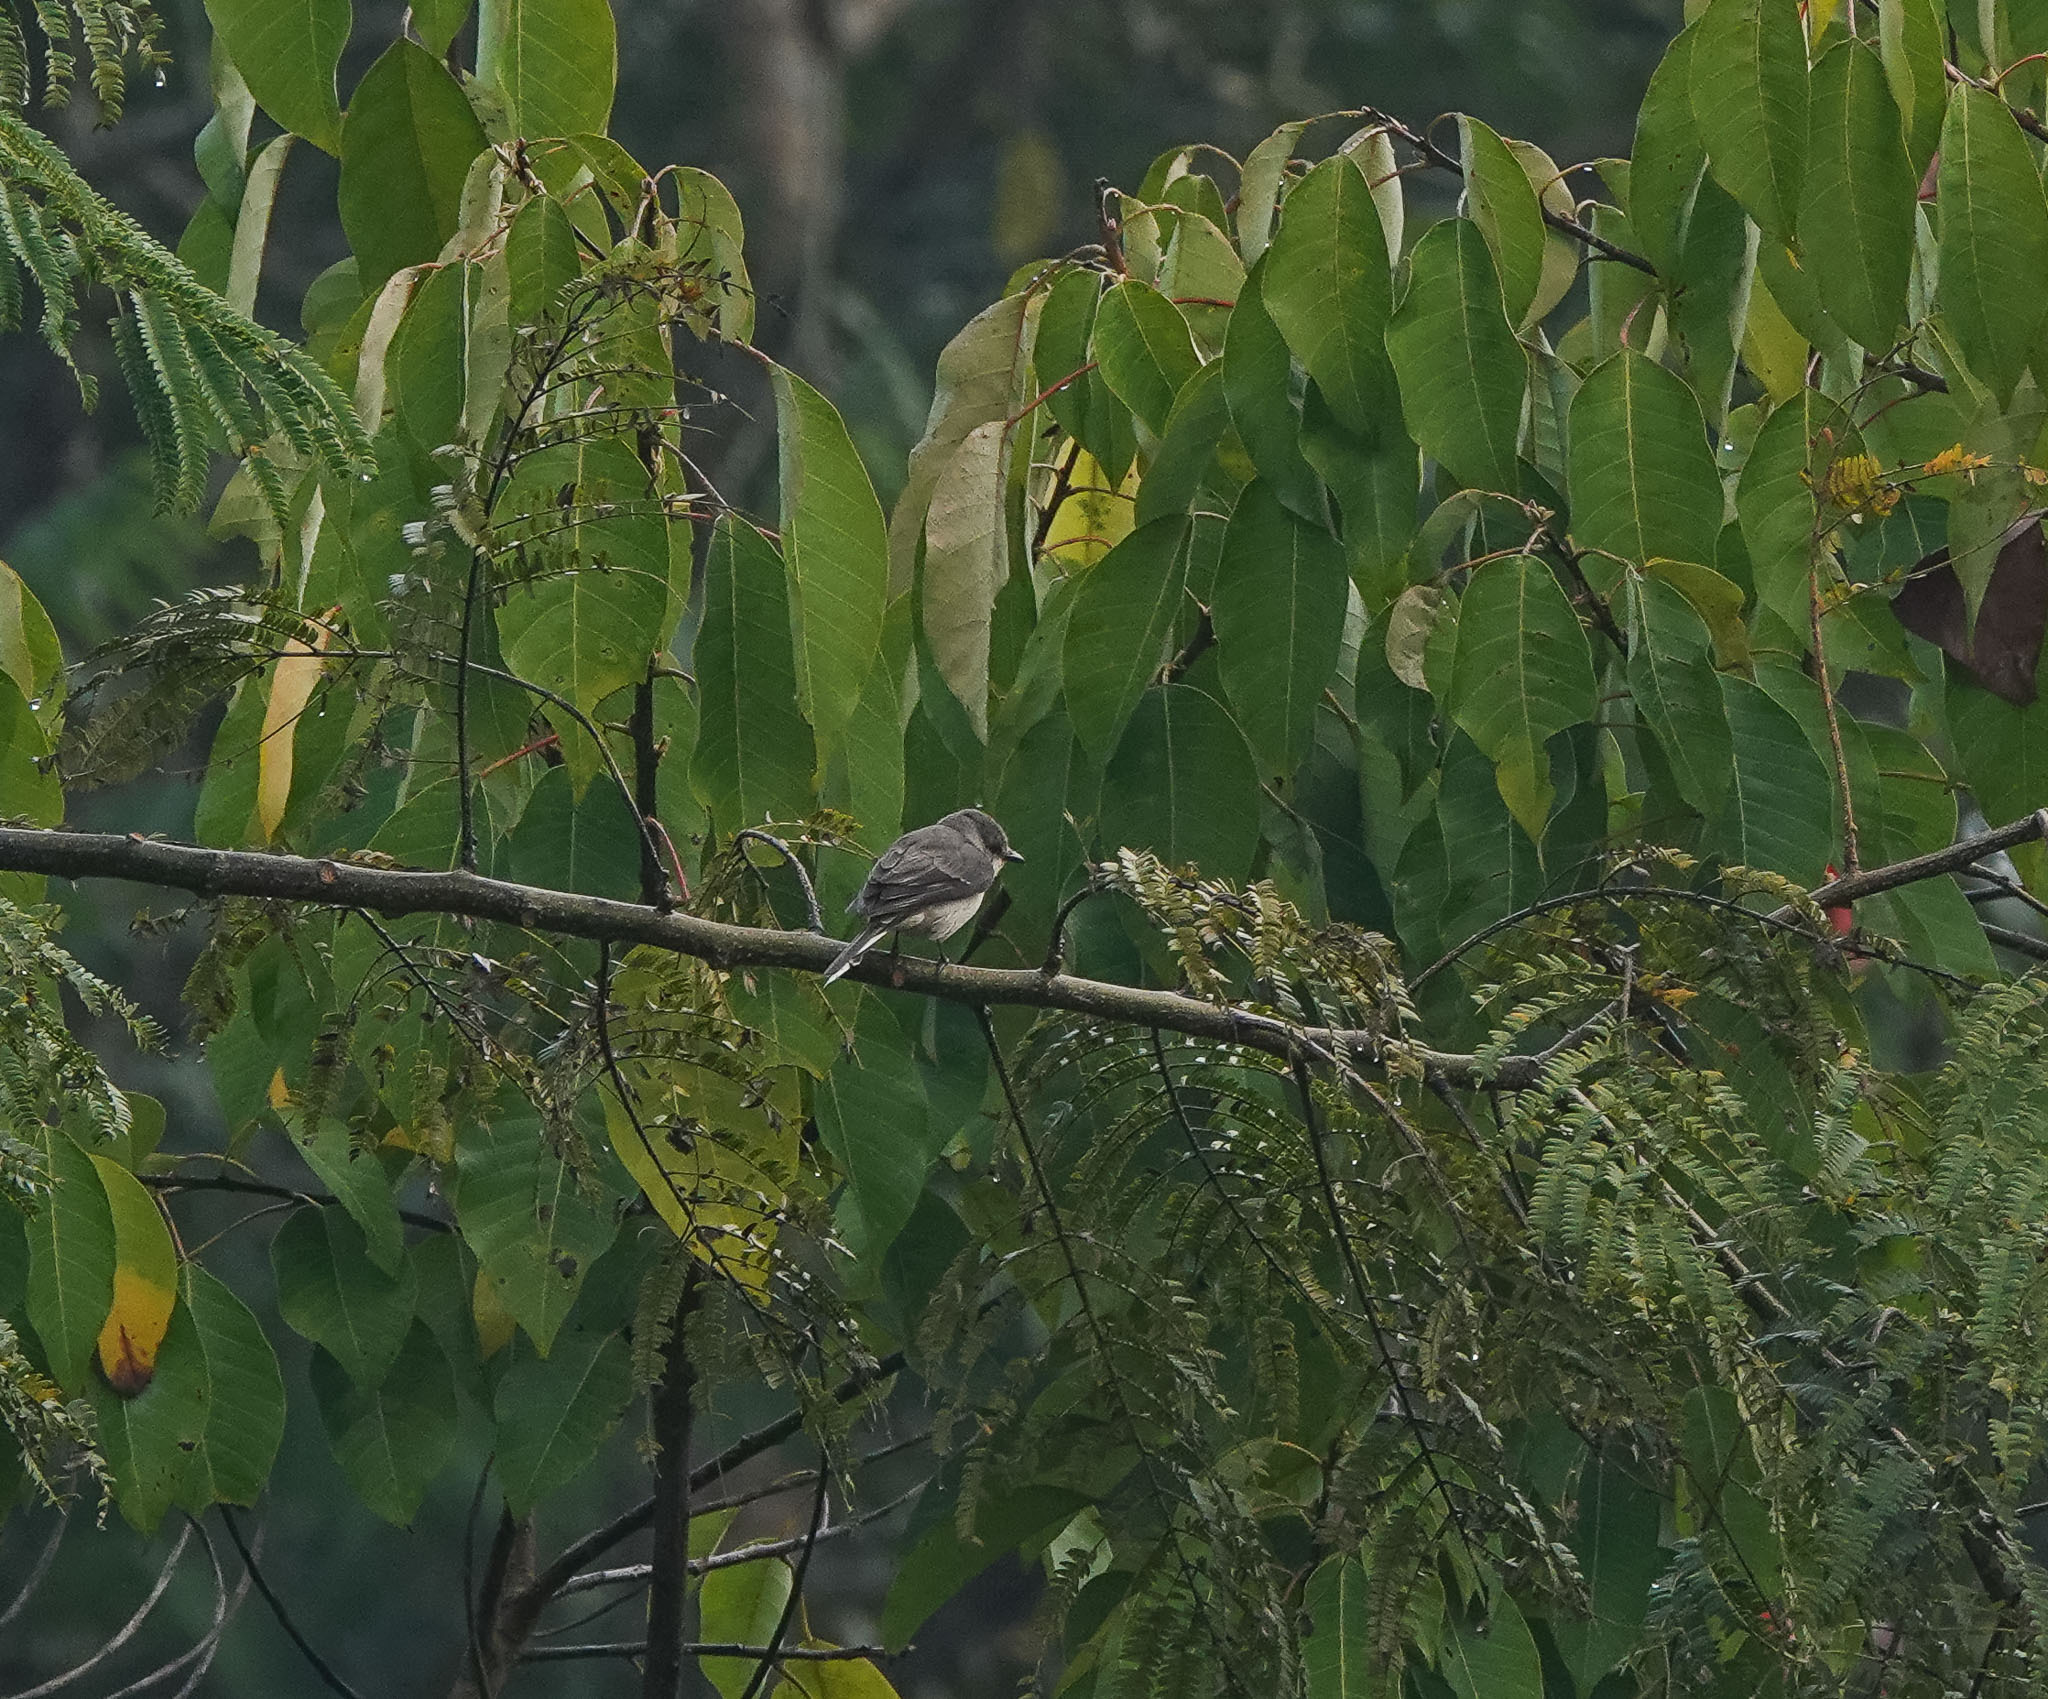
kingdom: Animalia
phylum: Chordata
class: Aves
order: Passeriformes
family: Campephagidae
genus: Pericrocotus
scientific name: Pericrocotus divaricatus
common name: Ashy minivet
